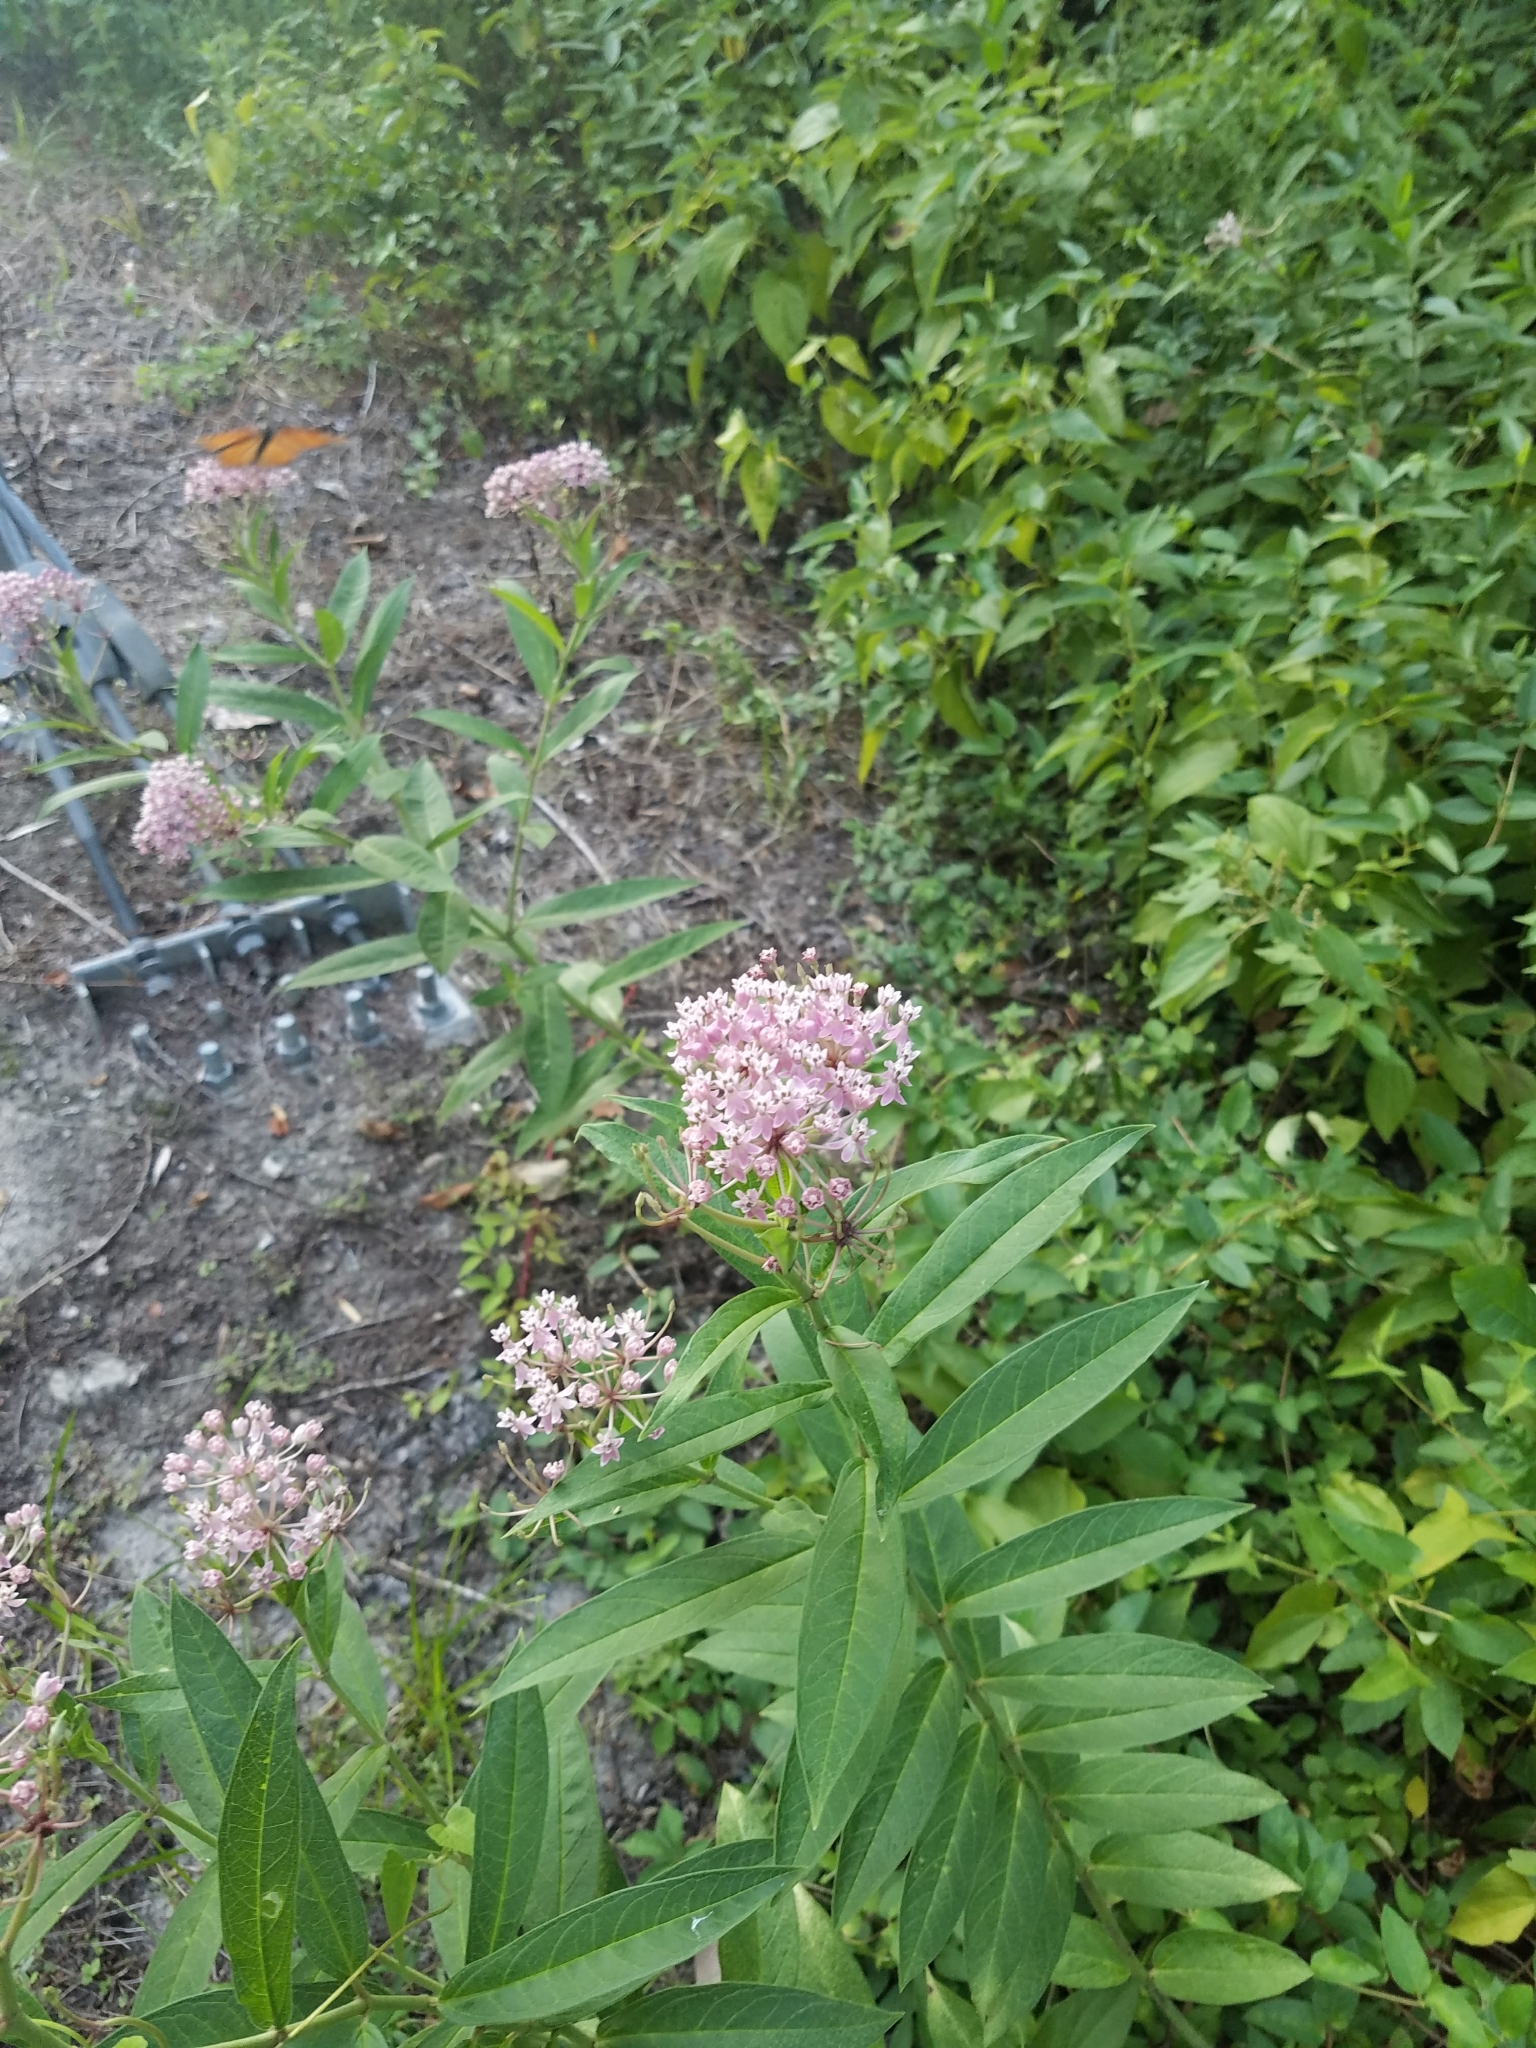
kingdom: Plantae
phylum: Tracheophyta
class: Magnoliopsida
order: Gentianales
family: Apocynaceae
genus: Asclepias
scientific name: Asclepias incarnata
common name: Swamp milkweed
